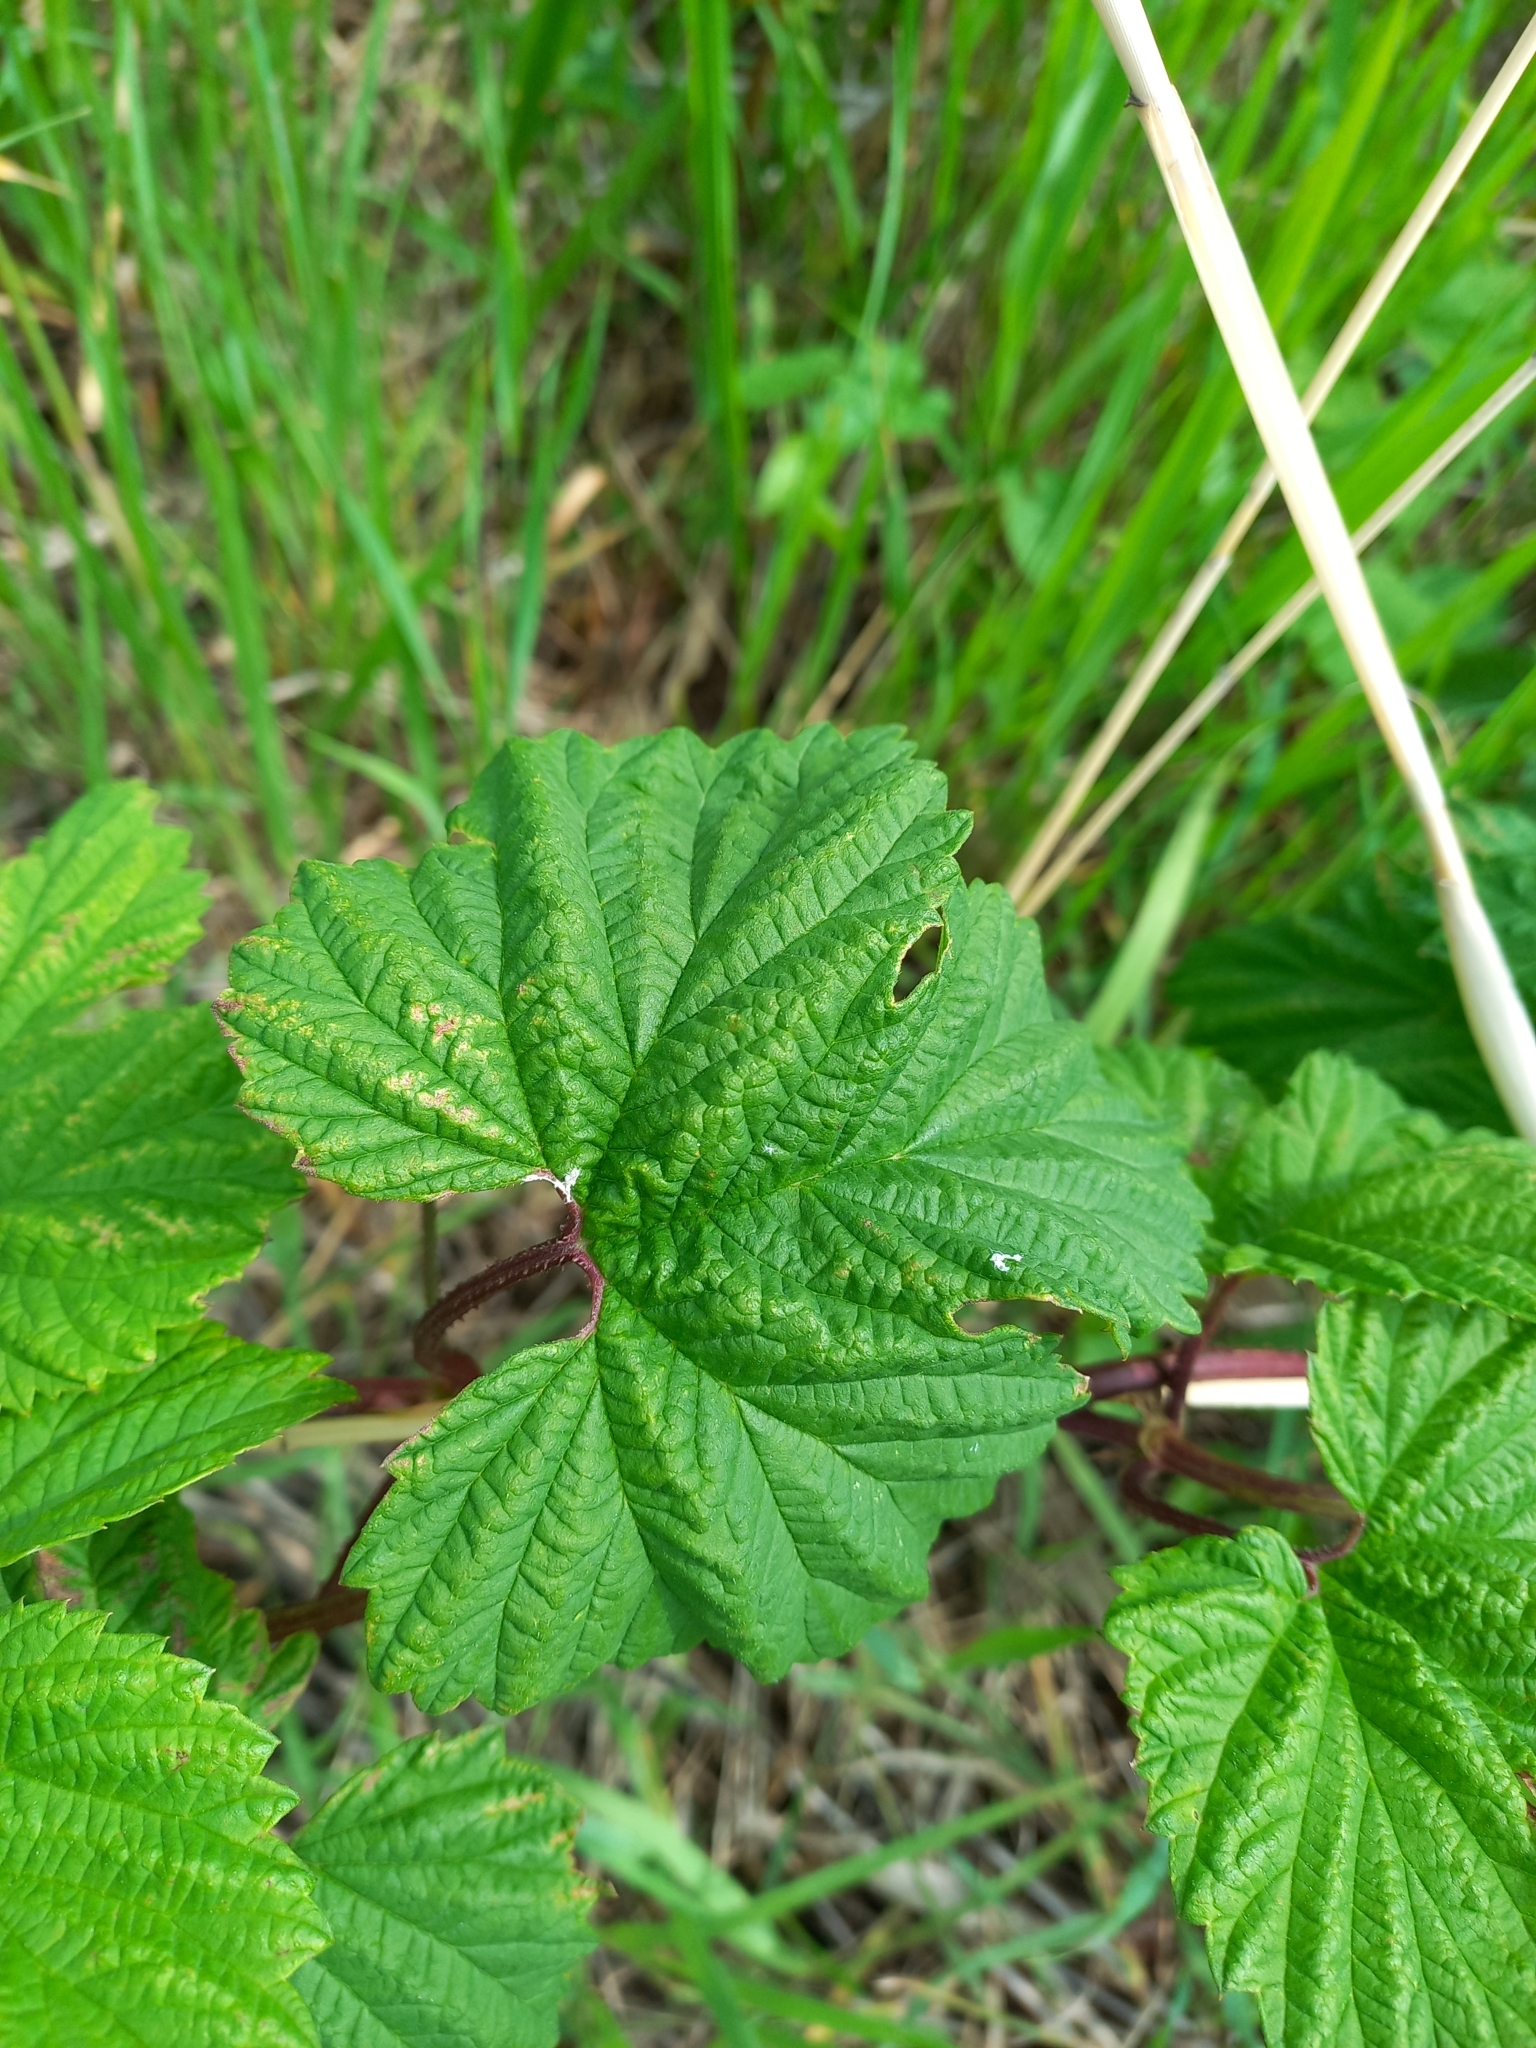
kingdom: Plantae
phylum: Tracheophyta
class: Magnoliopsida
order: Rosales
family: Cannabaceae
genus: Humulus
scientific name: Humulus lupulus
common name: Hop
